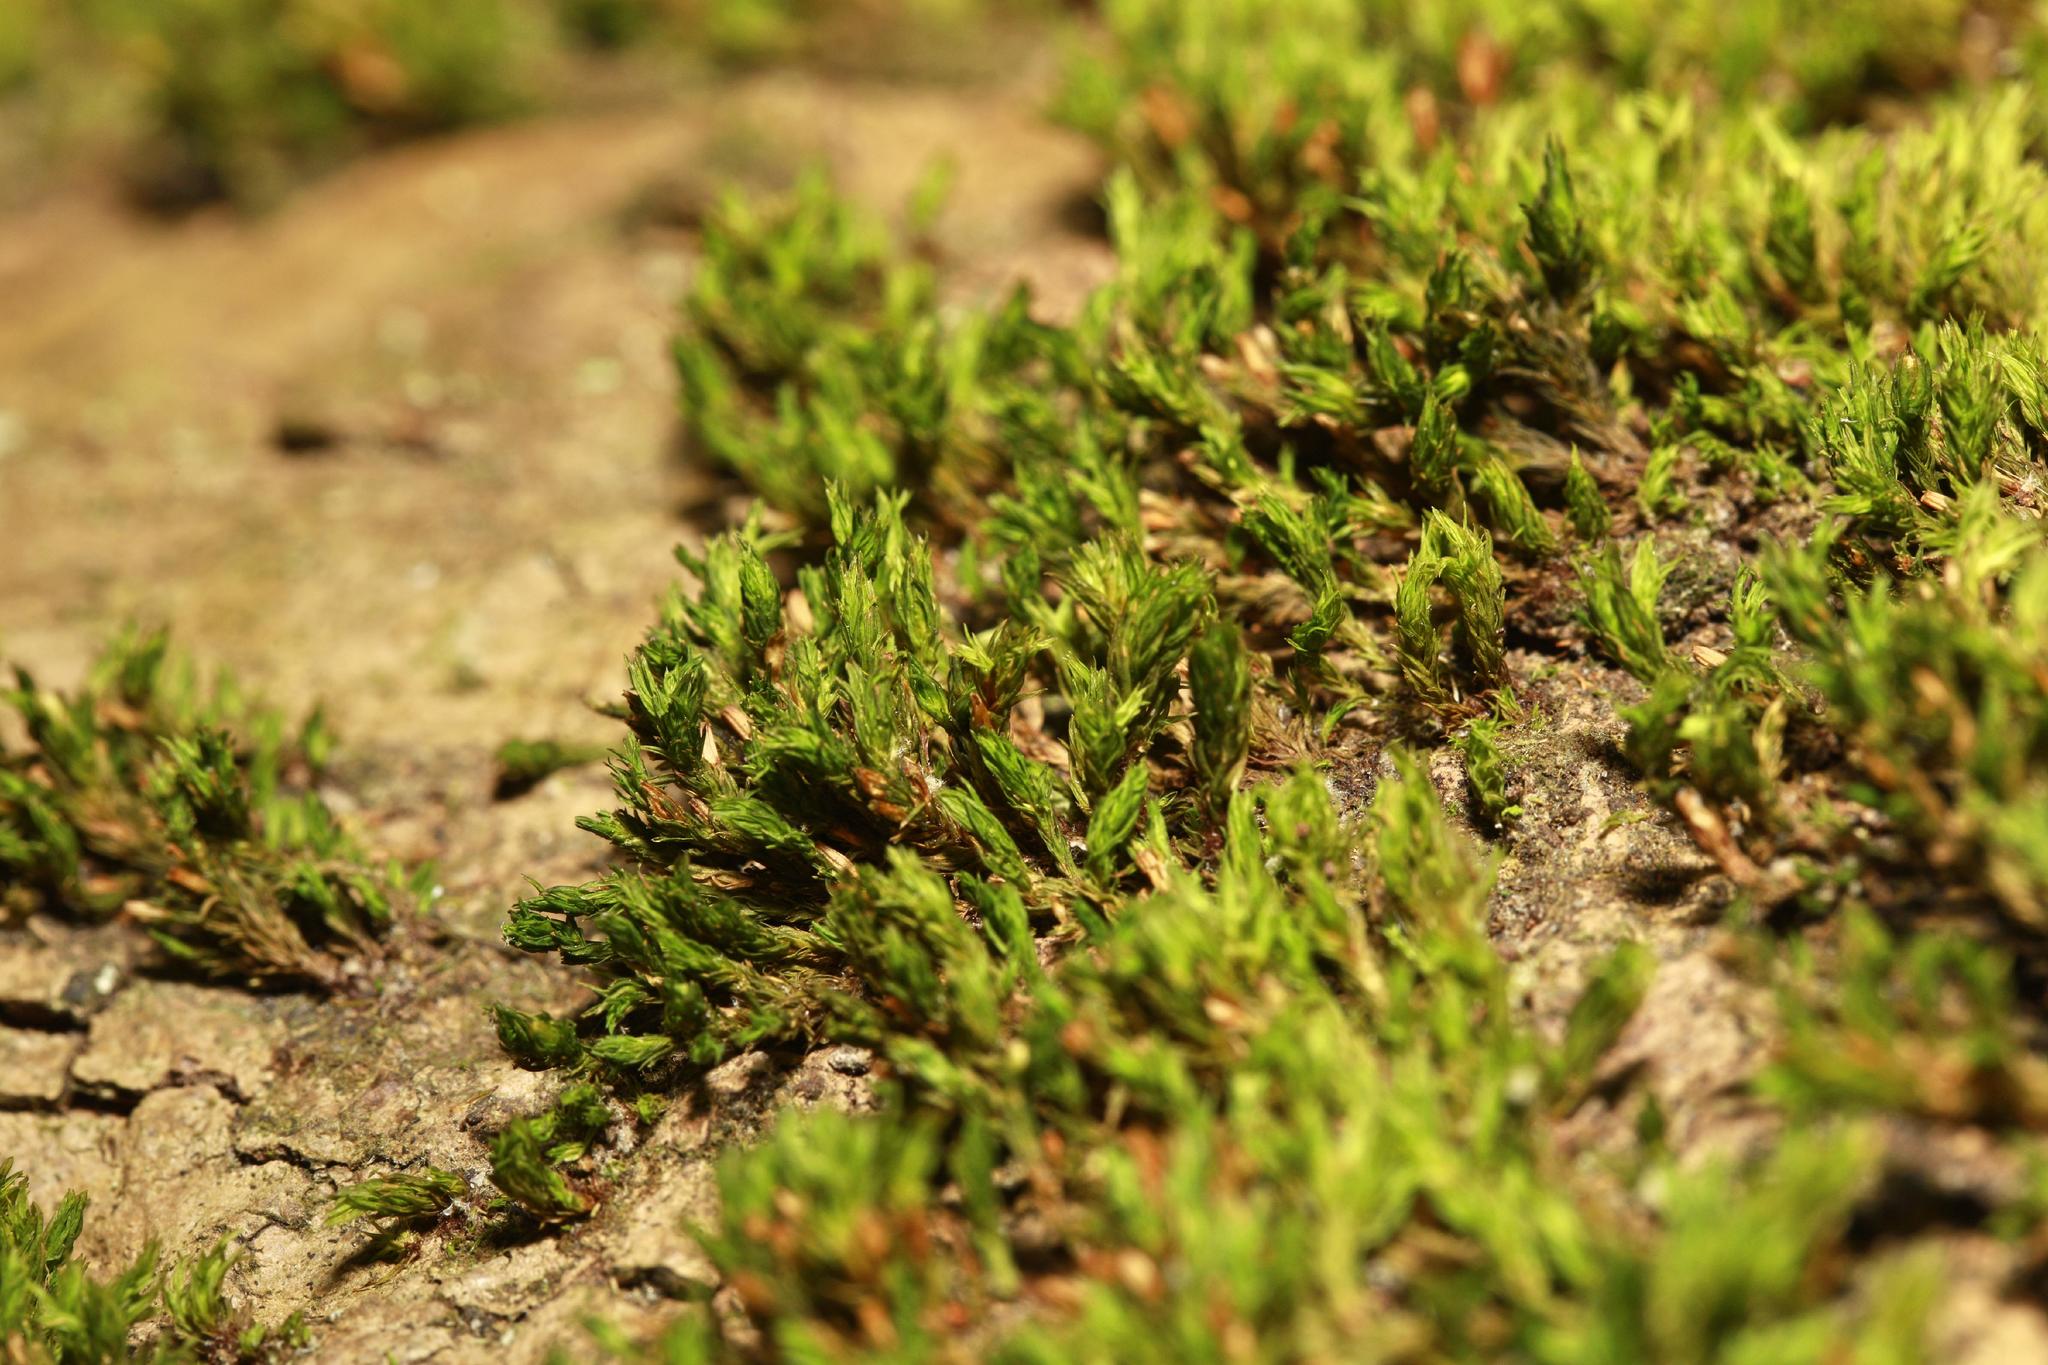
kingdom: Plantae
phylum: Bryophyta
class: Bryopsida
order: Orthotrichales
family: Orthotrichaceae
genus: Lewinskya
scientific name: Lewinskya affinis
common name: Wood bristle-moss
